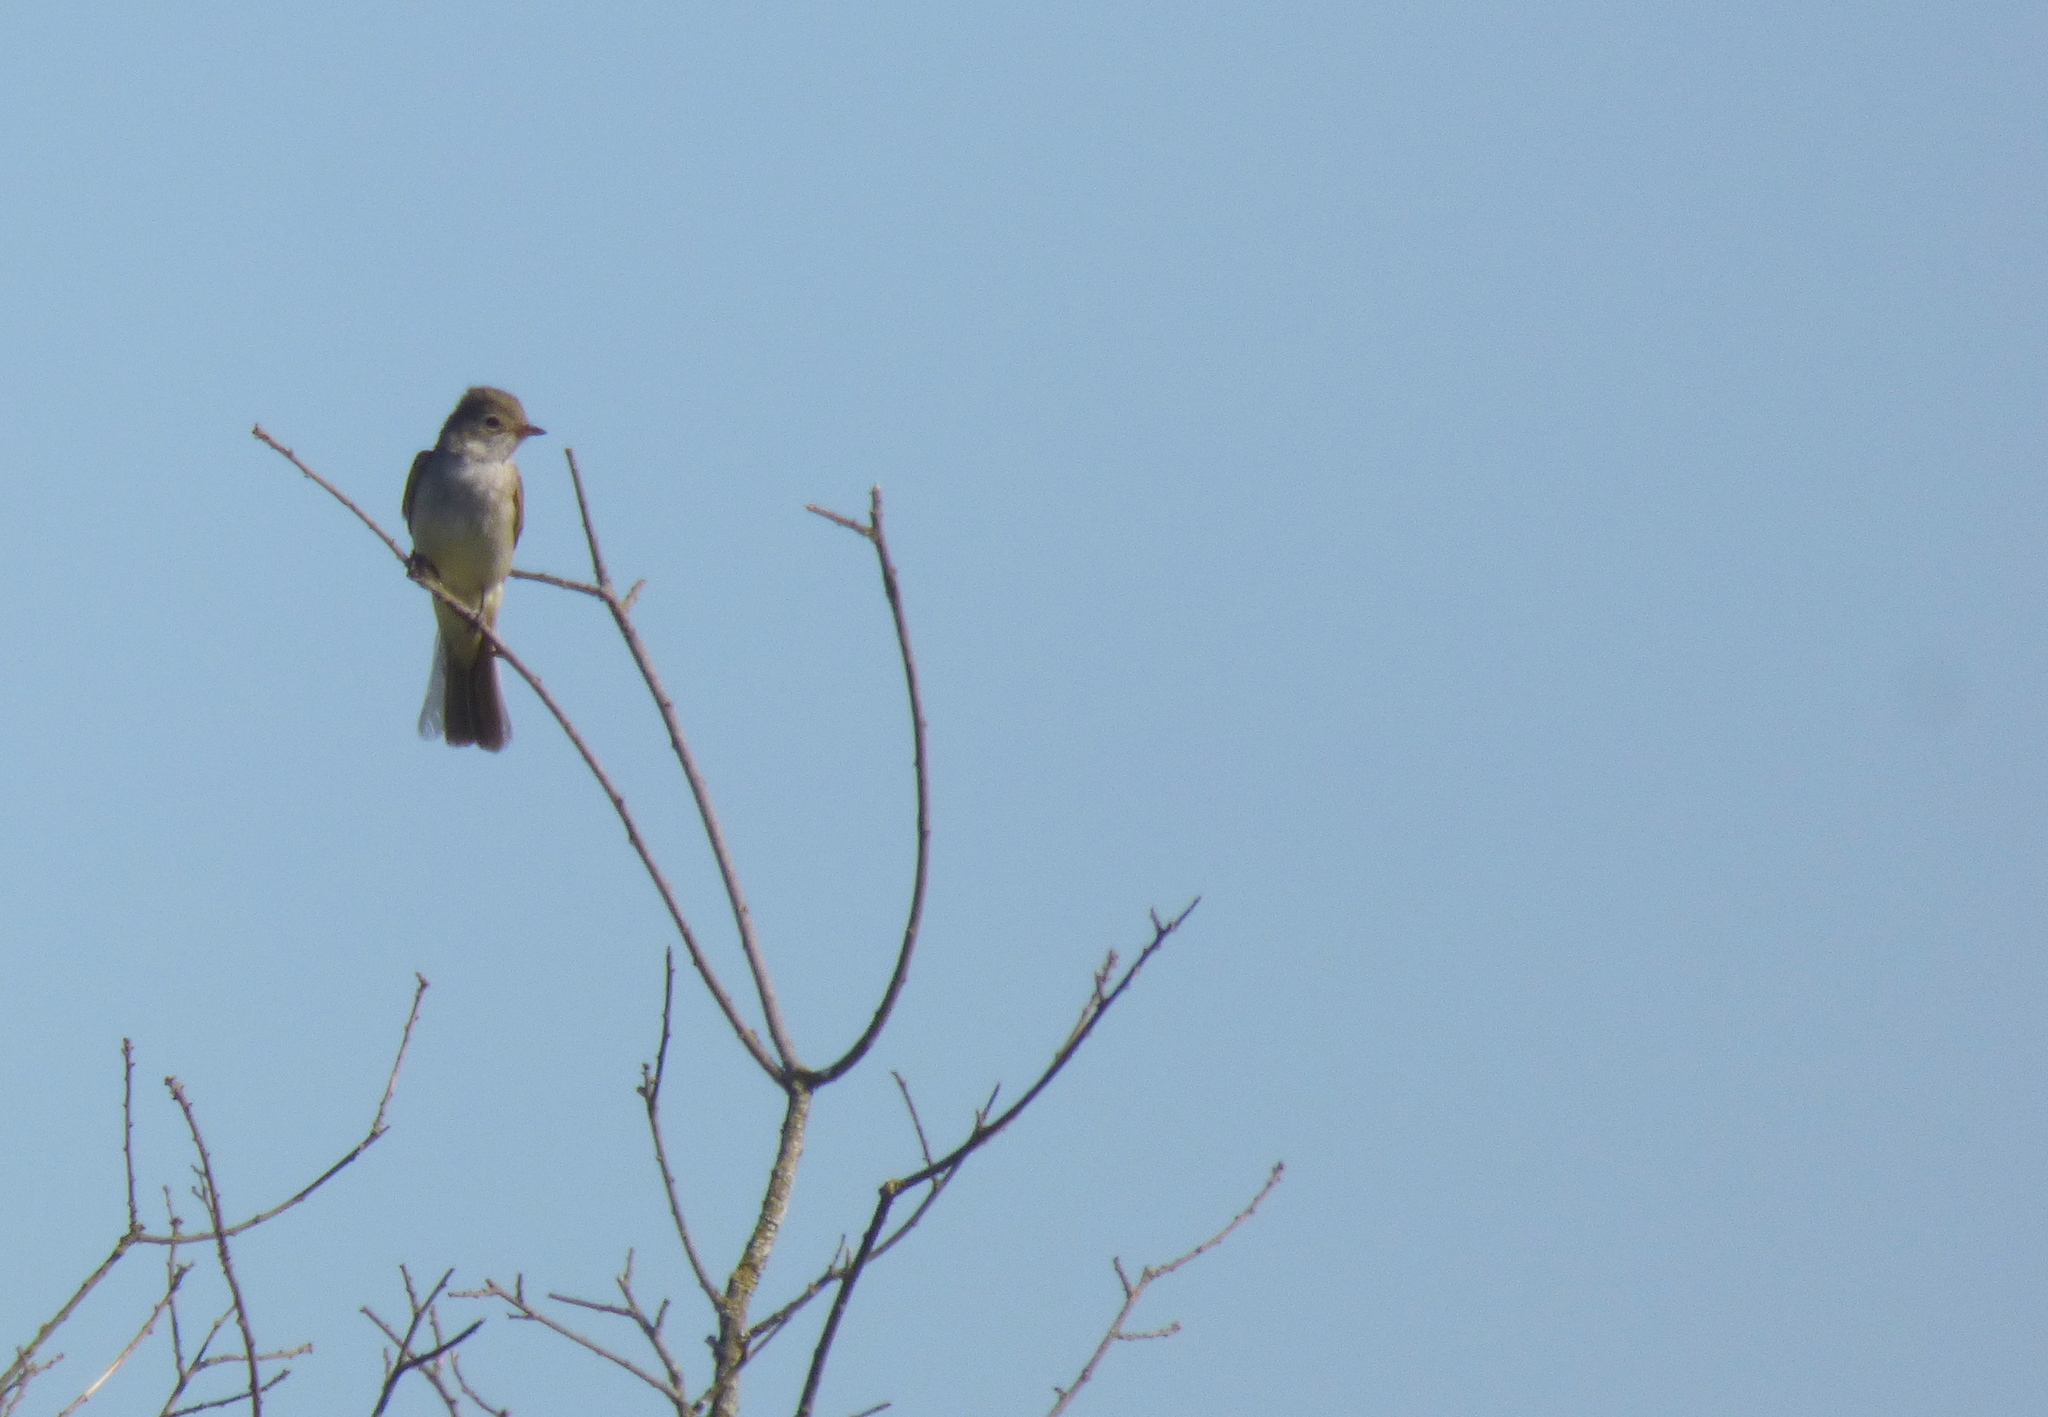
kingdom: Animalia
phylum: Chordata
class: Aves
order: Passeriformes
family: Tyrannidae
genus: Elaenia
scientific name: Elaenia spectabilis
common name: Large elaenia
